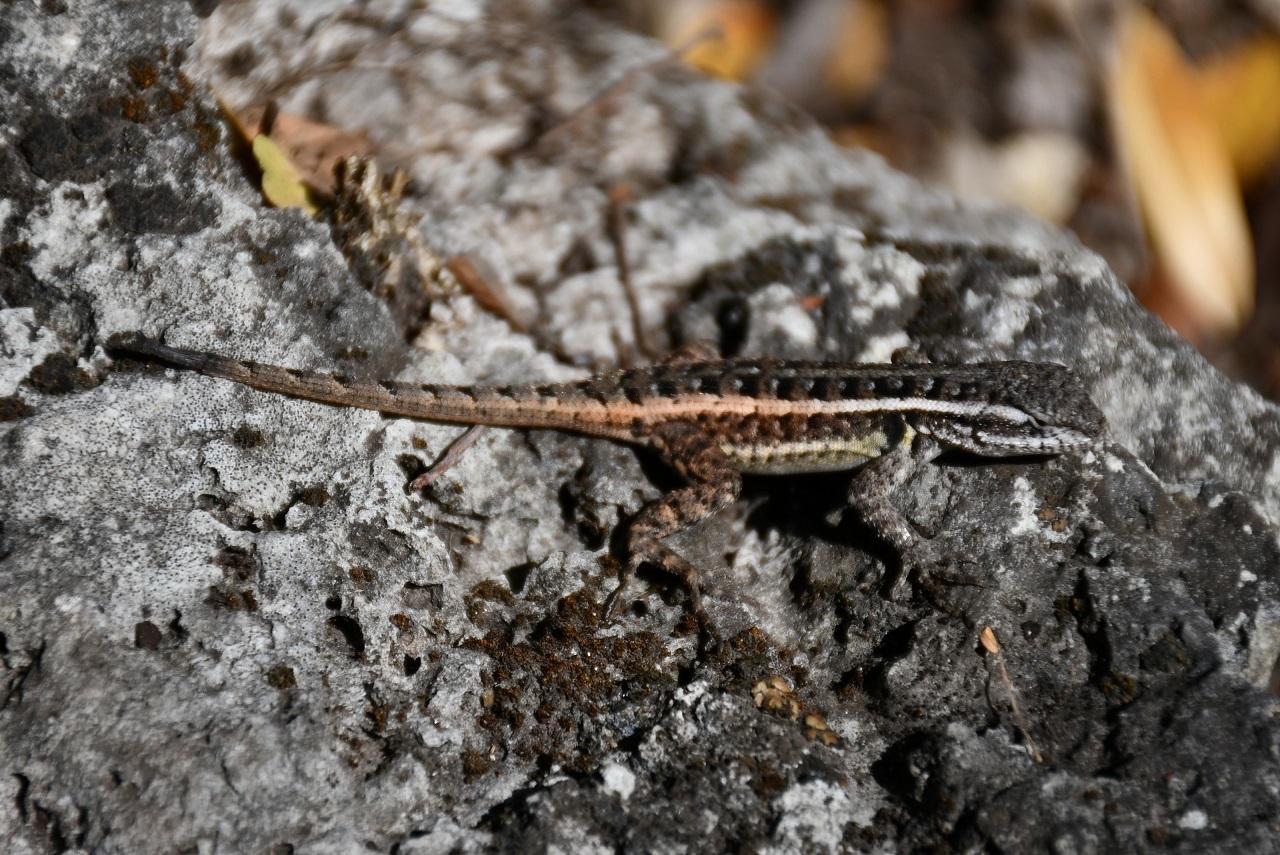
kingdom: Animalia
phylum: Chordata
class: Squamata
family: Phrynosomatidae
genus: Sceloporus
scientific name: Sceloporus variabilis
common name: Rosebelly lizard
